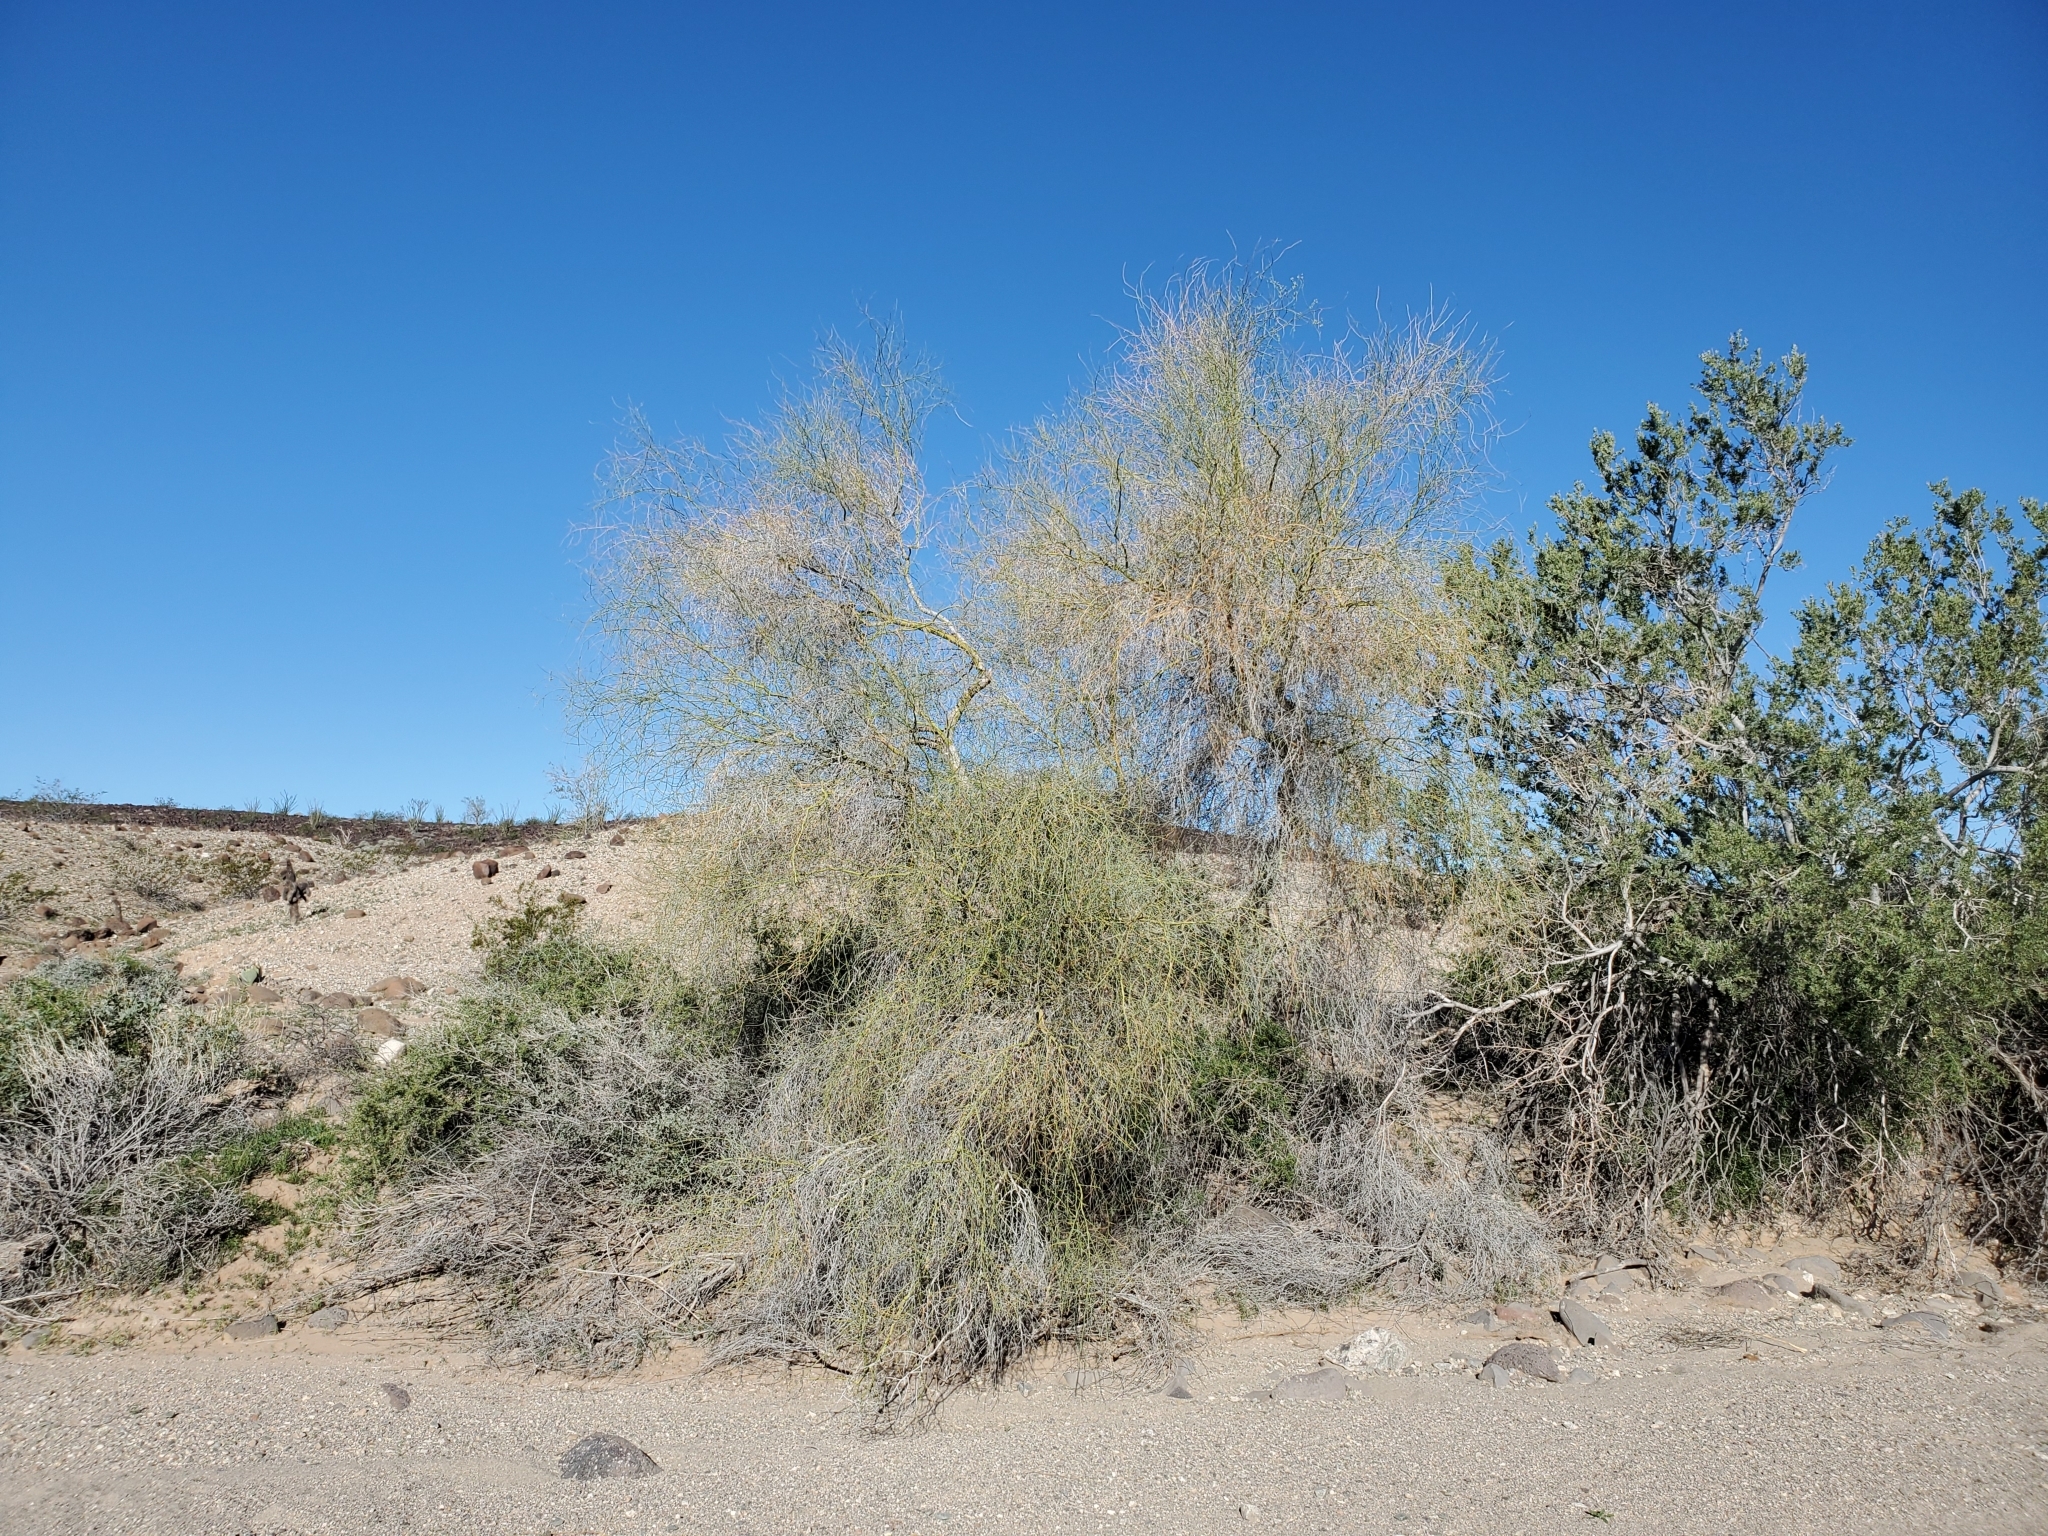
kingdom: Plantae
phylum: Tracheophyta
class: Magnoliopsida
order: Fabales
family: Fabaceae
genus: Parkinsonia
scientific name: Parkinsonia florida
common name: Blue paloverde
